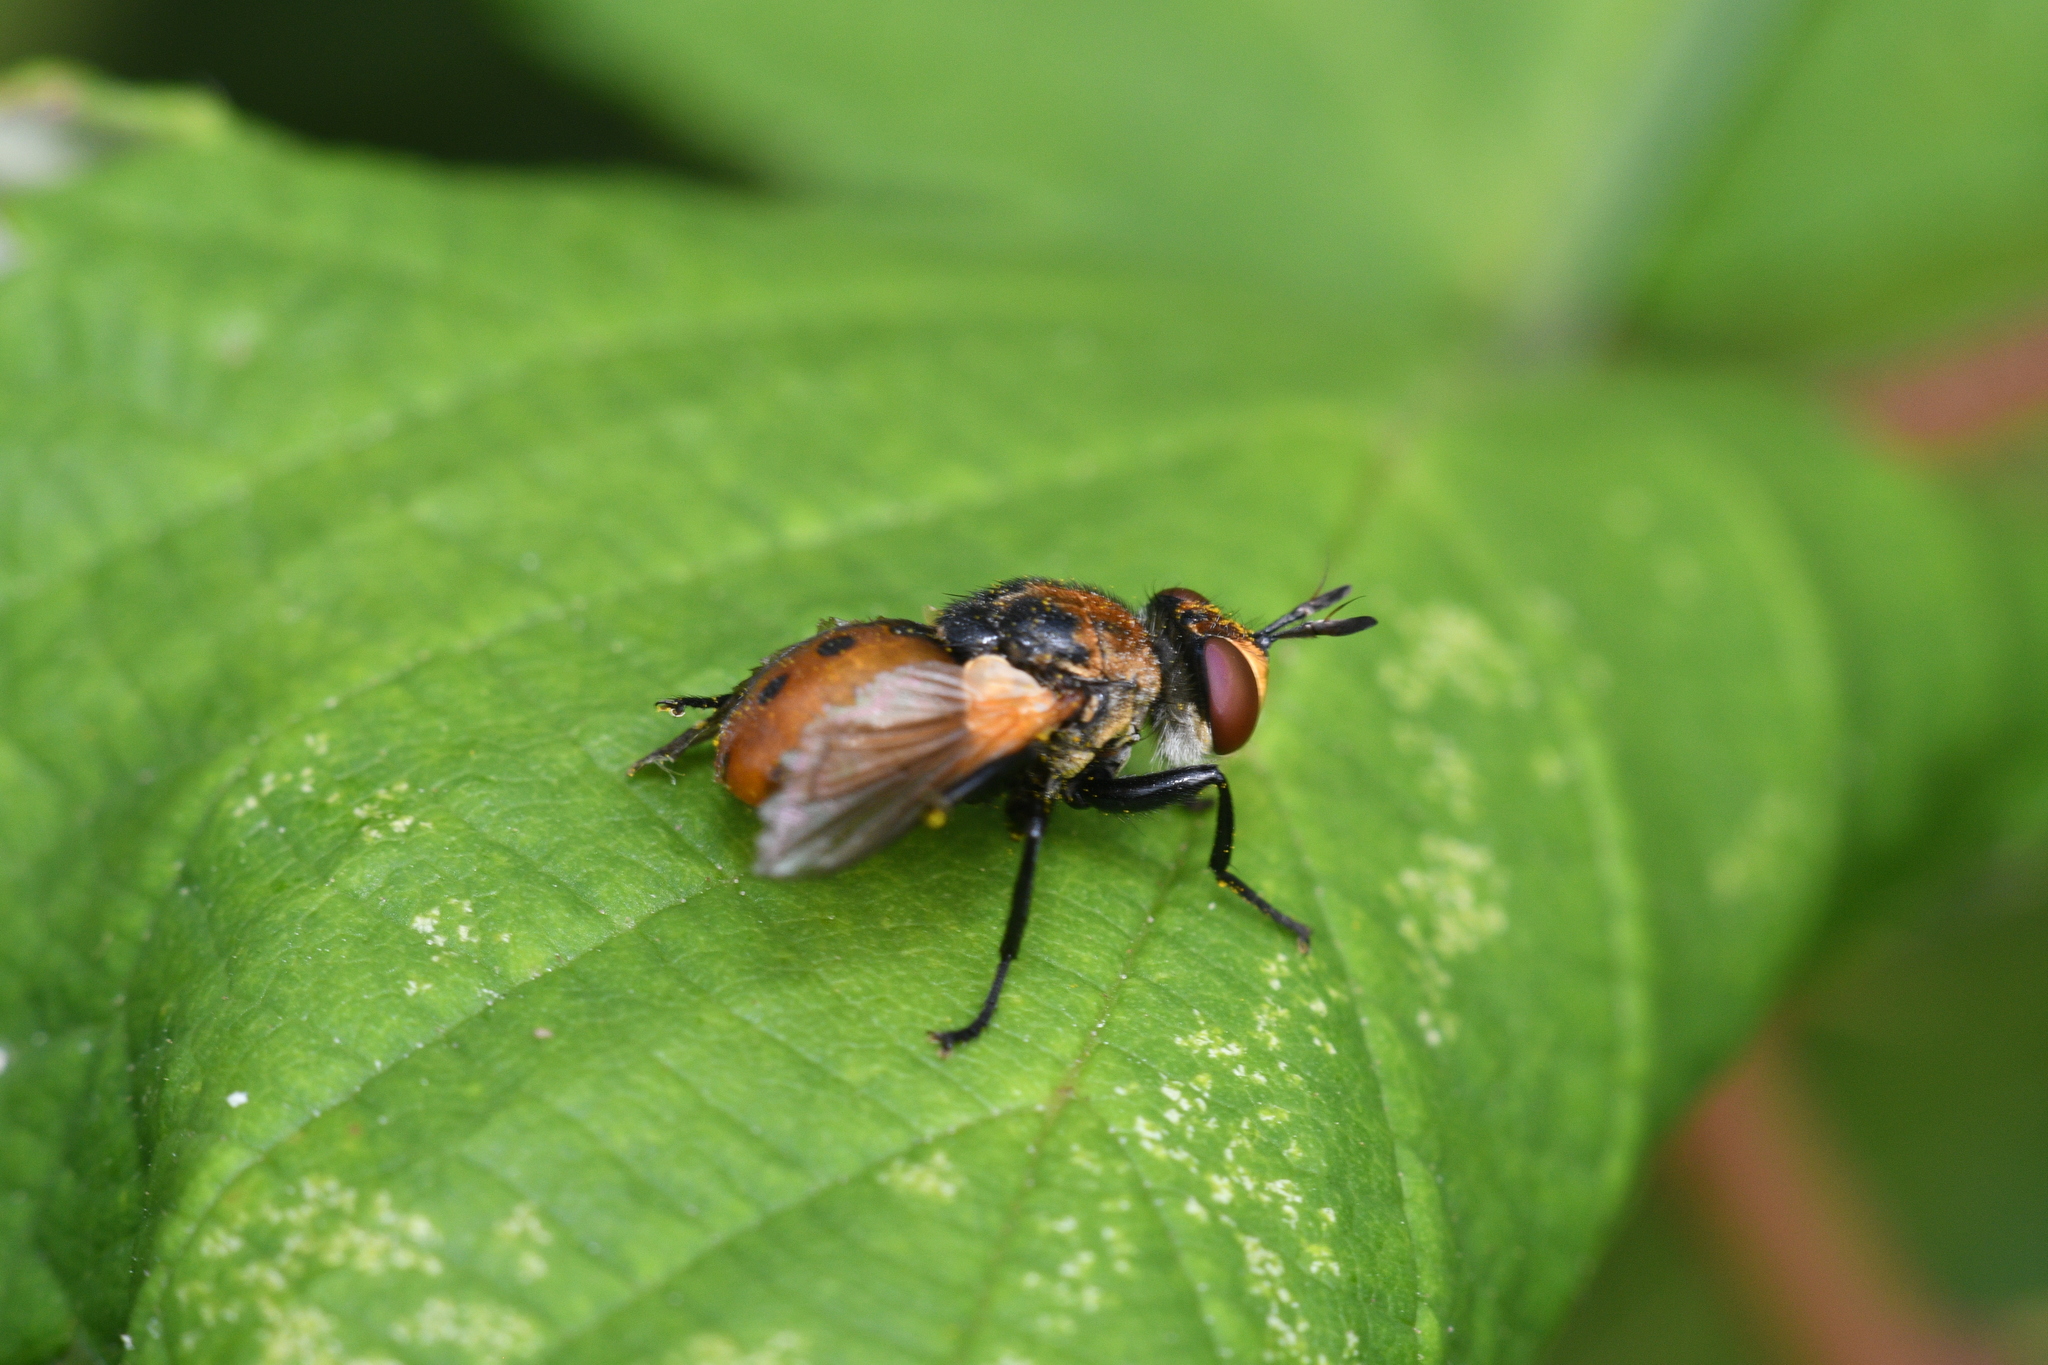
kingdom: Animalia
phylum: Arthropoda
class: Insecta
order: Diptera
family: Tachinidae
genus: Gymnosoma
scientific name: Gymnosoma rotundatum
